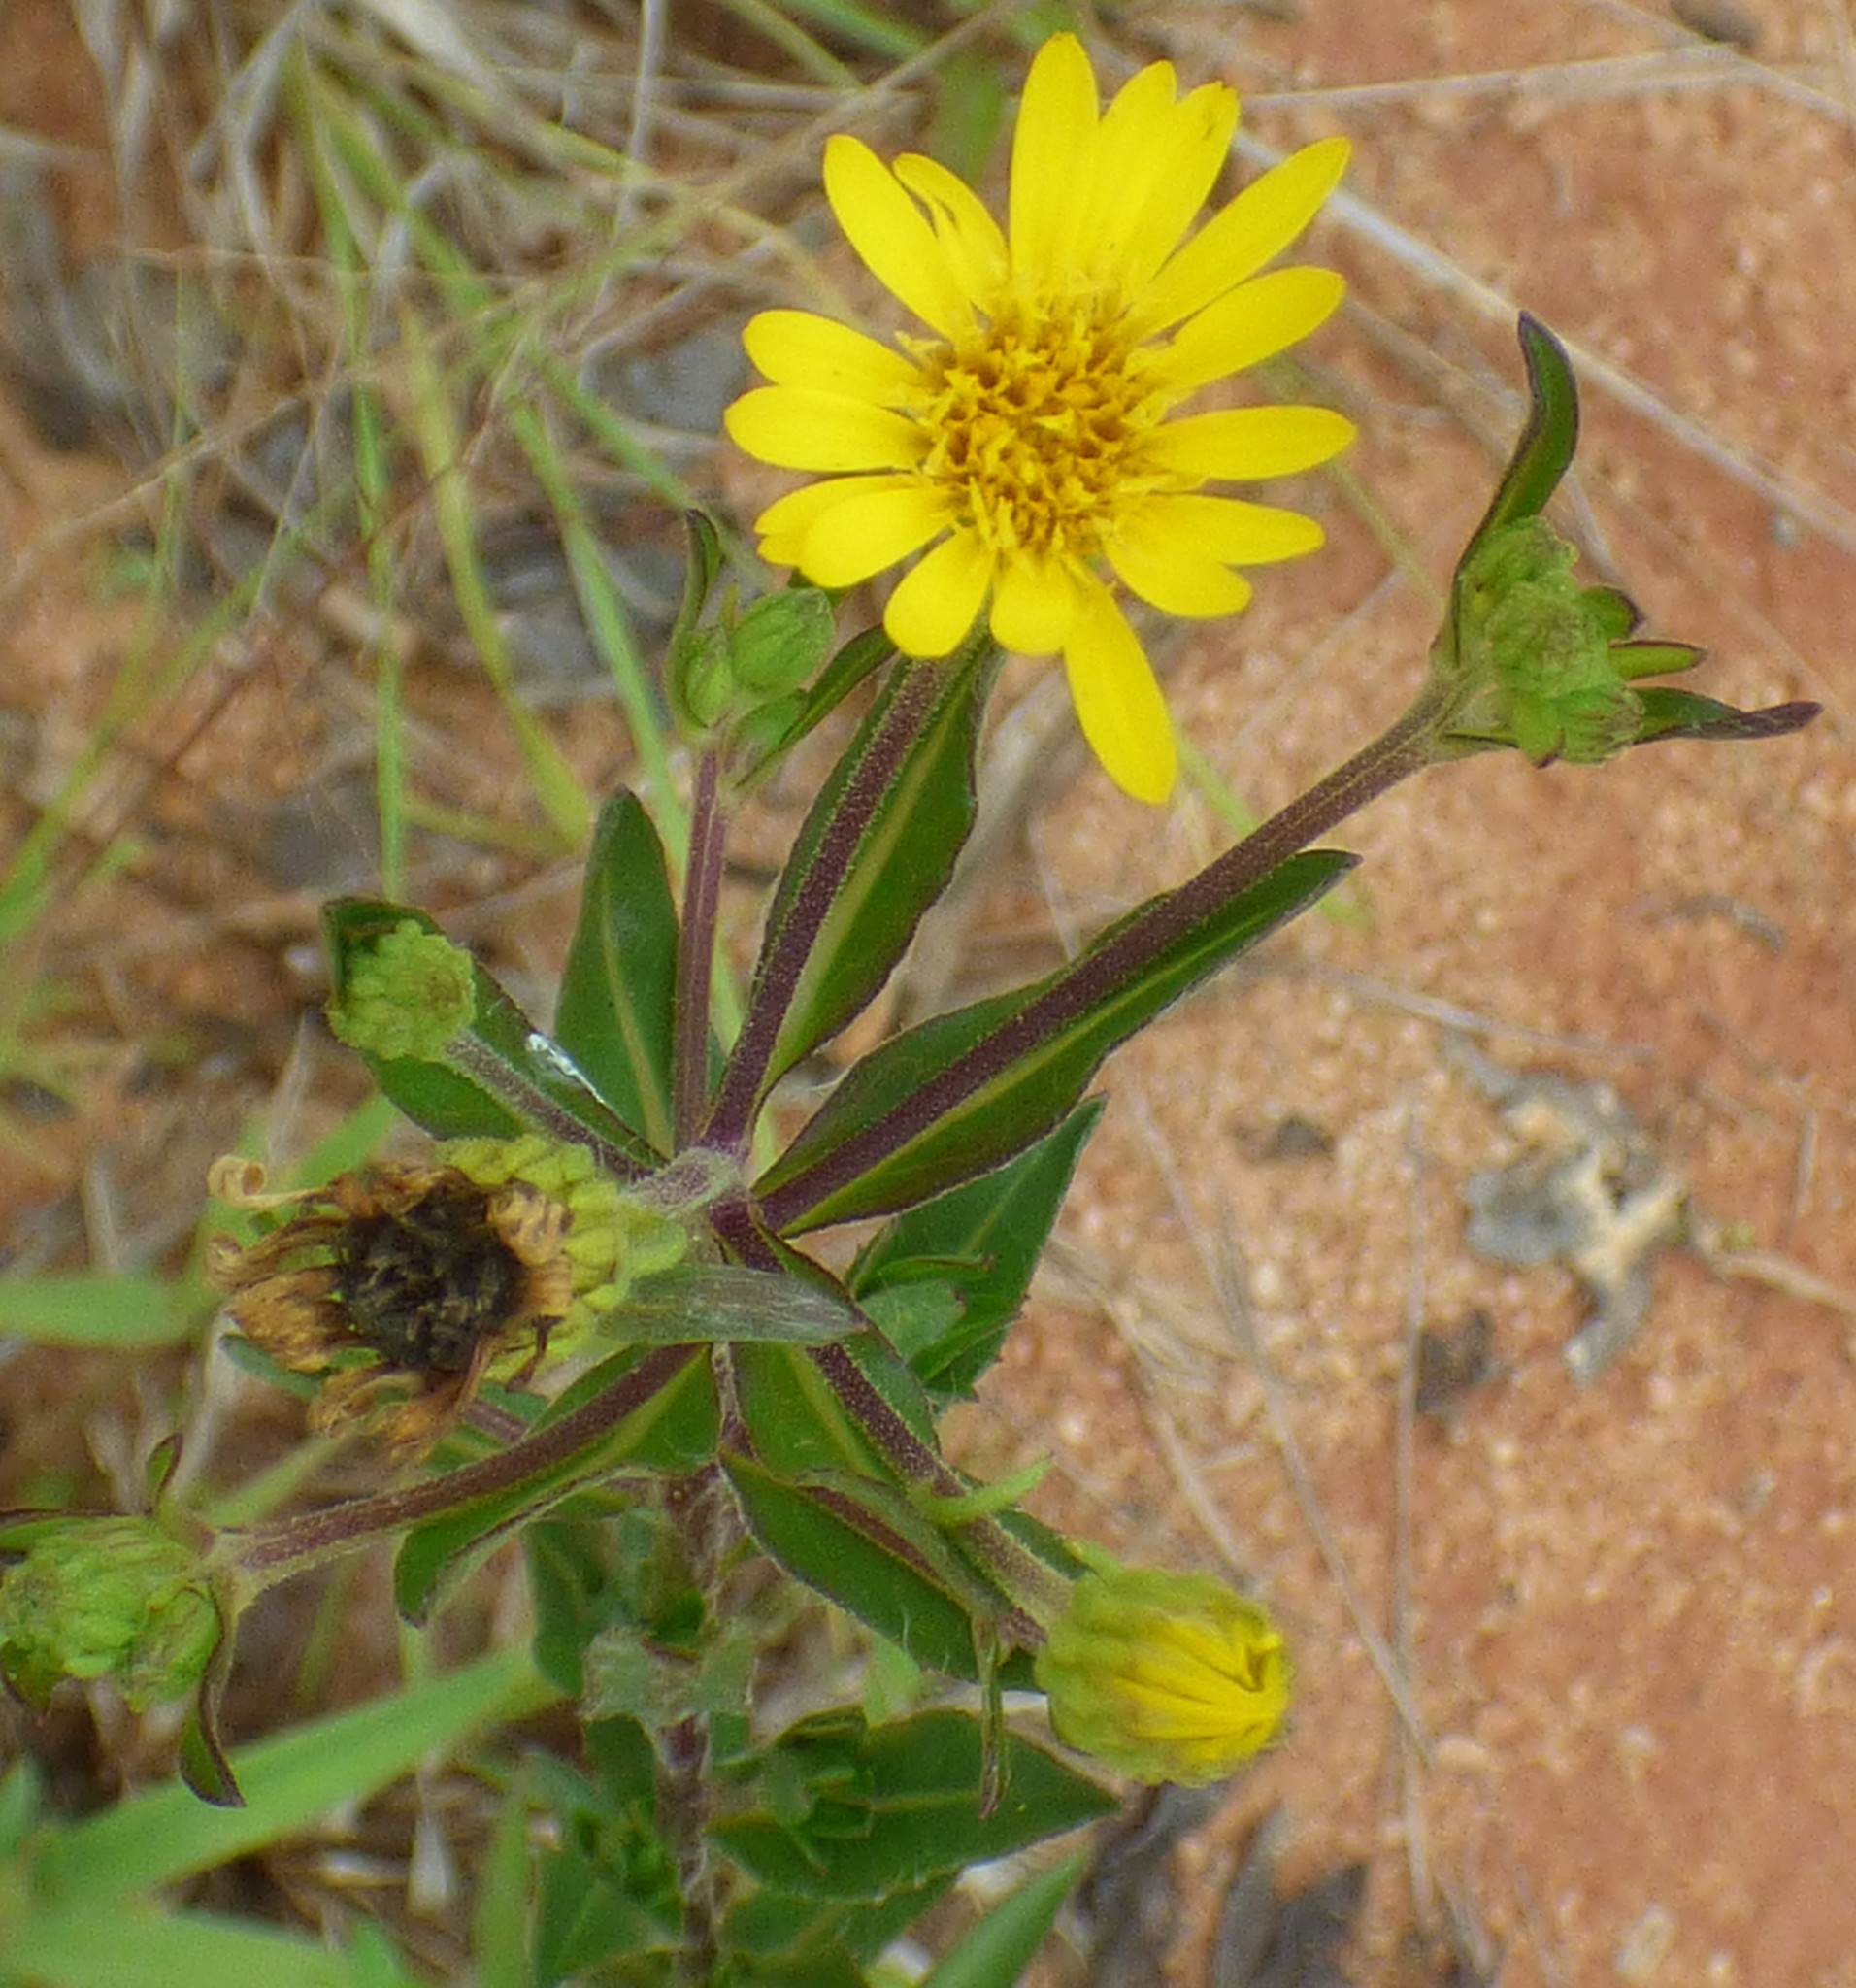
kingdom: Plantae
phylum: Tracheophyta
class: Magnoliopsida
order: Asterales
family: Asteraceae
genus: Chrysopsis
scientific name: Chrysopsis mariana
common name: Maryland golden-aster
